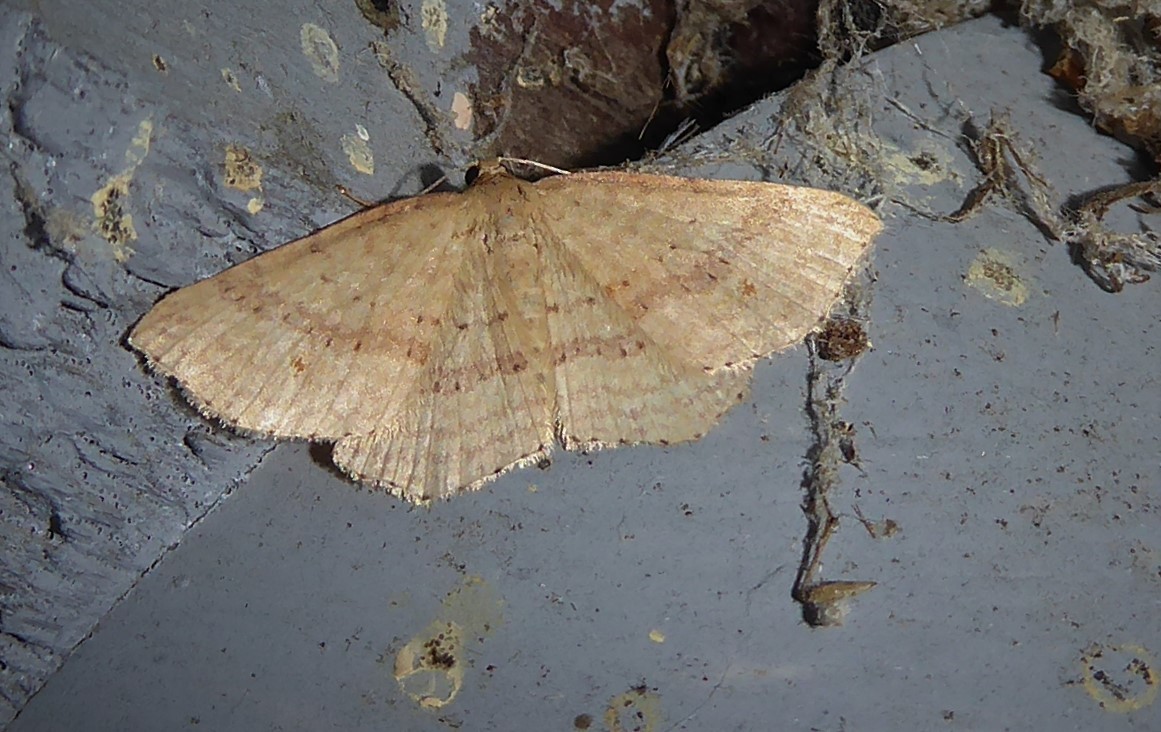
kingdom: Animalia
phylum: Arthropoda
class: Insecta
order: Lepidoptera
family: Geometridae
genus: Epicyme
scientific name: Epicyme rubropunctaria
